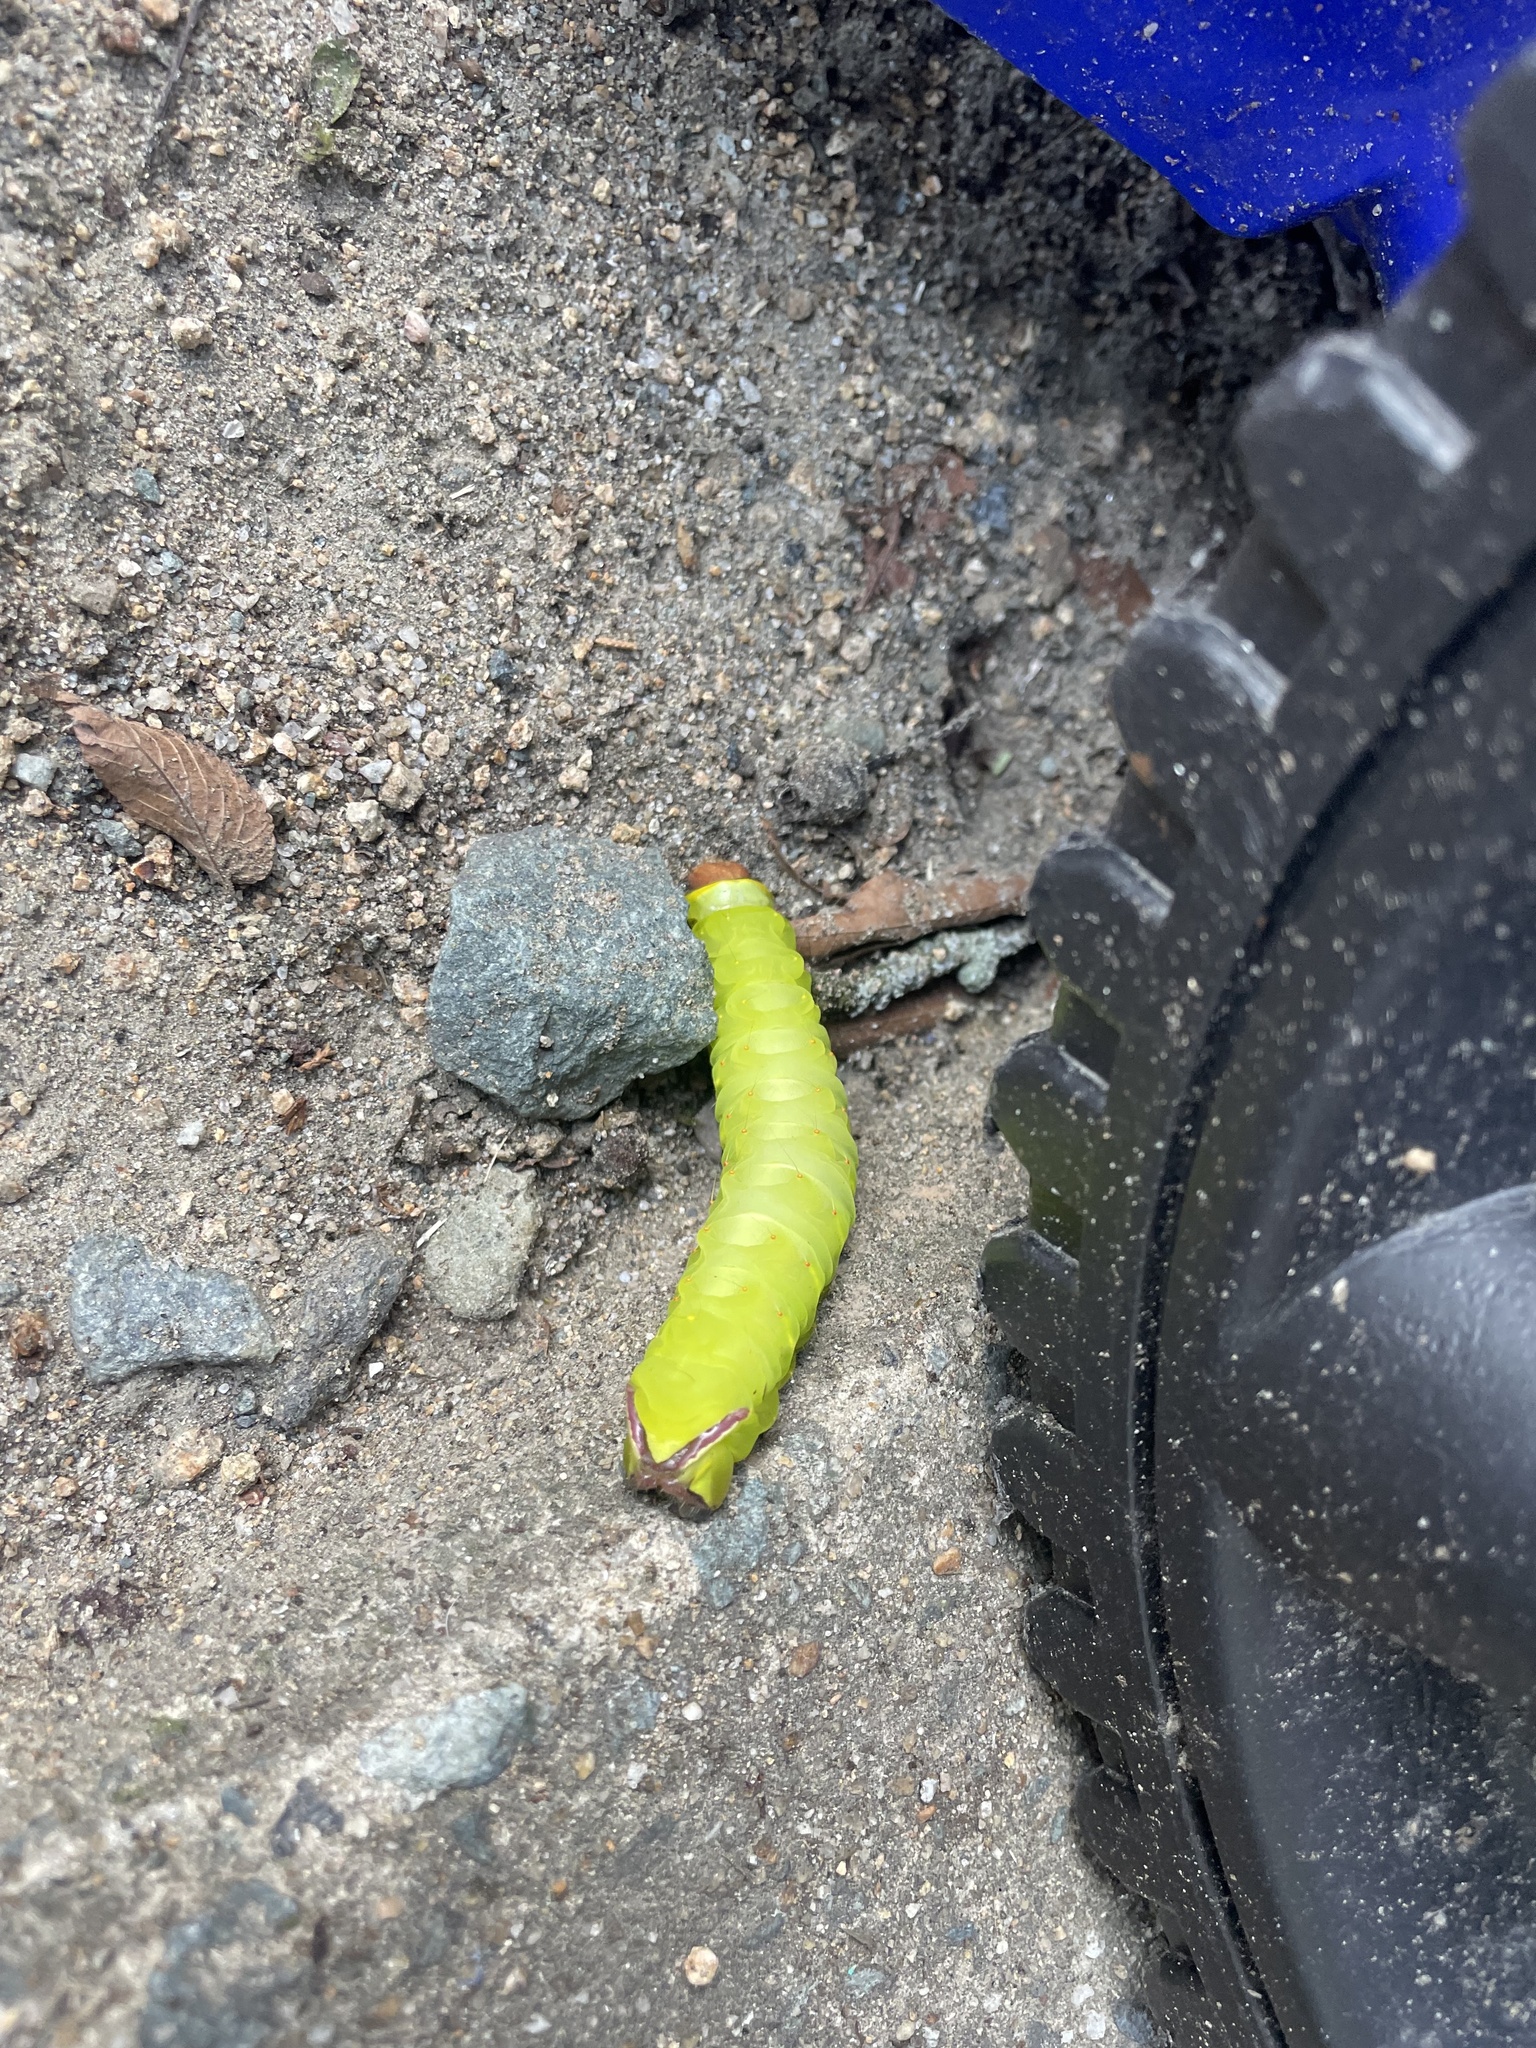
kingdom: Animalia
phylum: Arthropoda
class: Insecta
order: Lepidoptera
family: Saturniidae
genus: Antheraea
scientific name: Antheraea polyphemus
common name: Polyphemus moth
